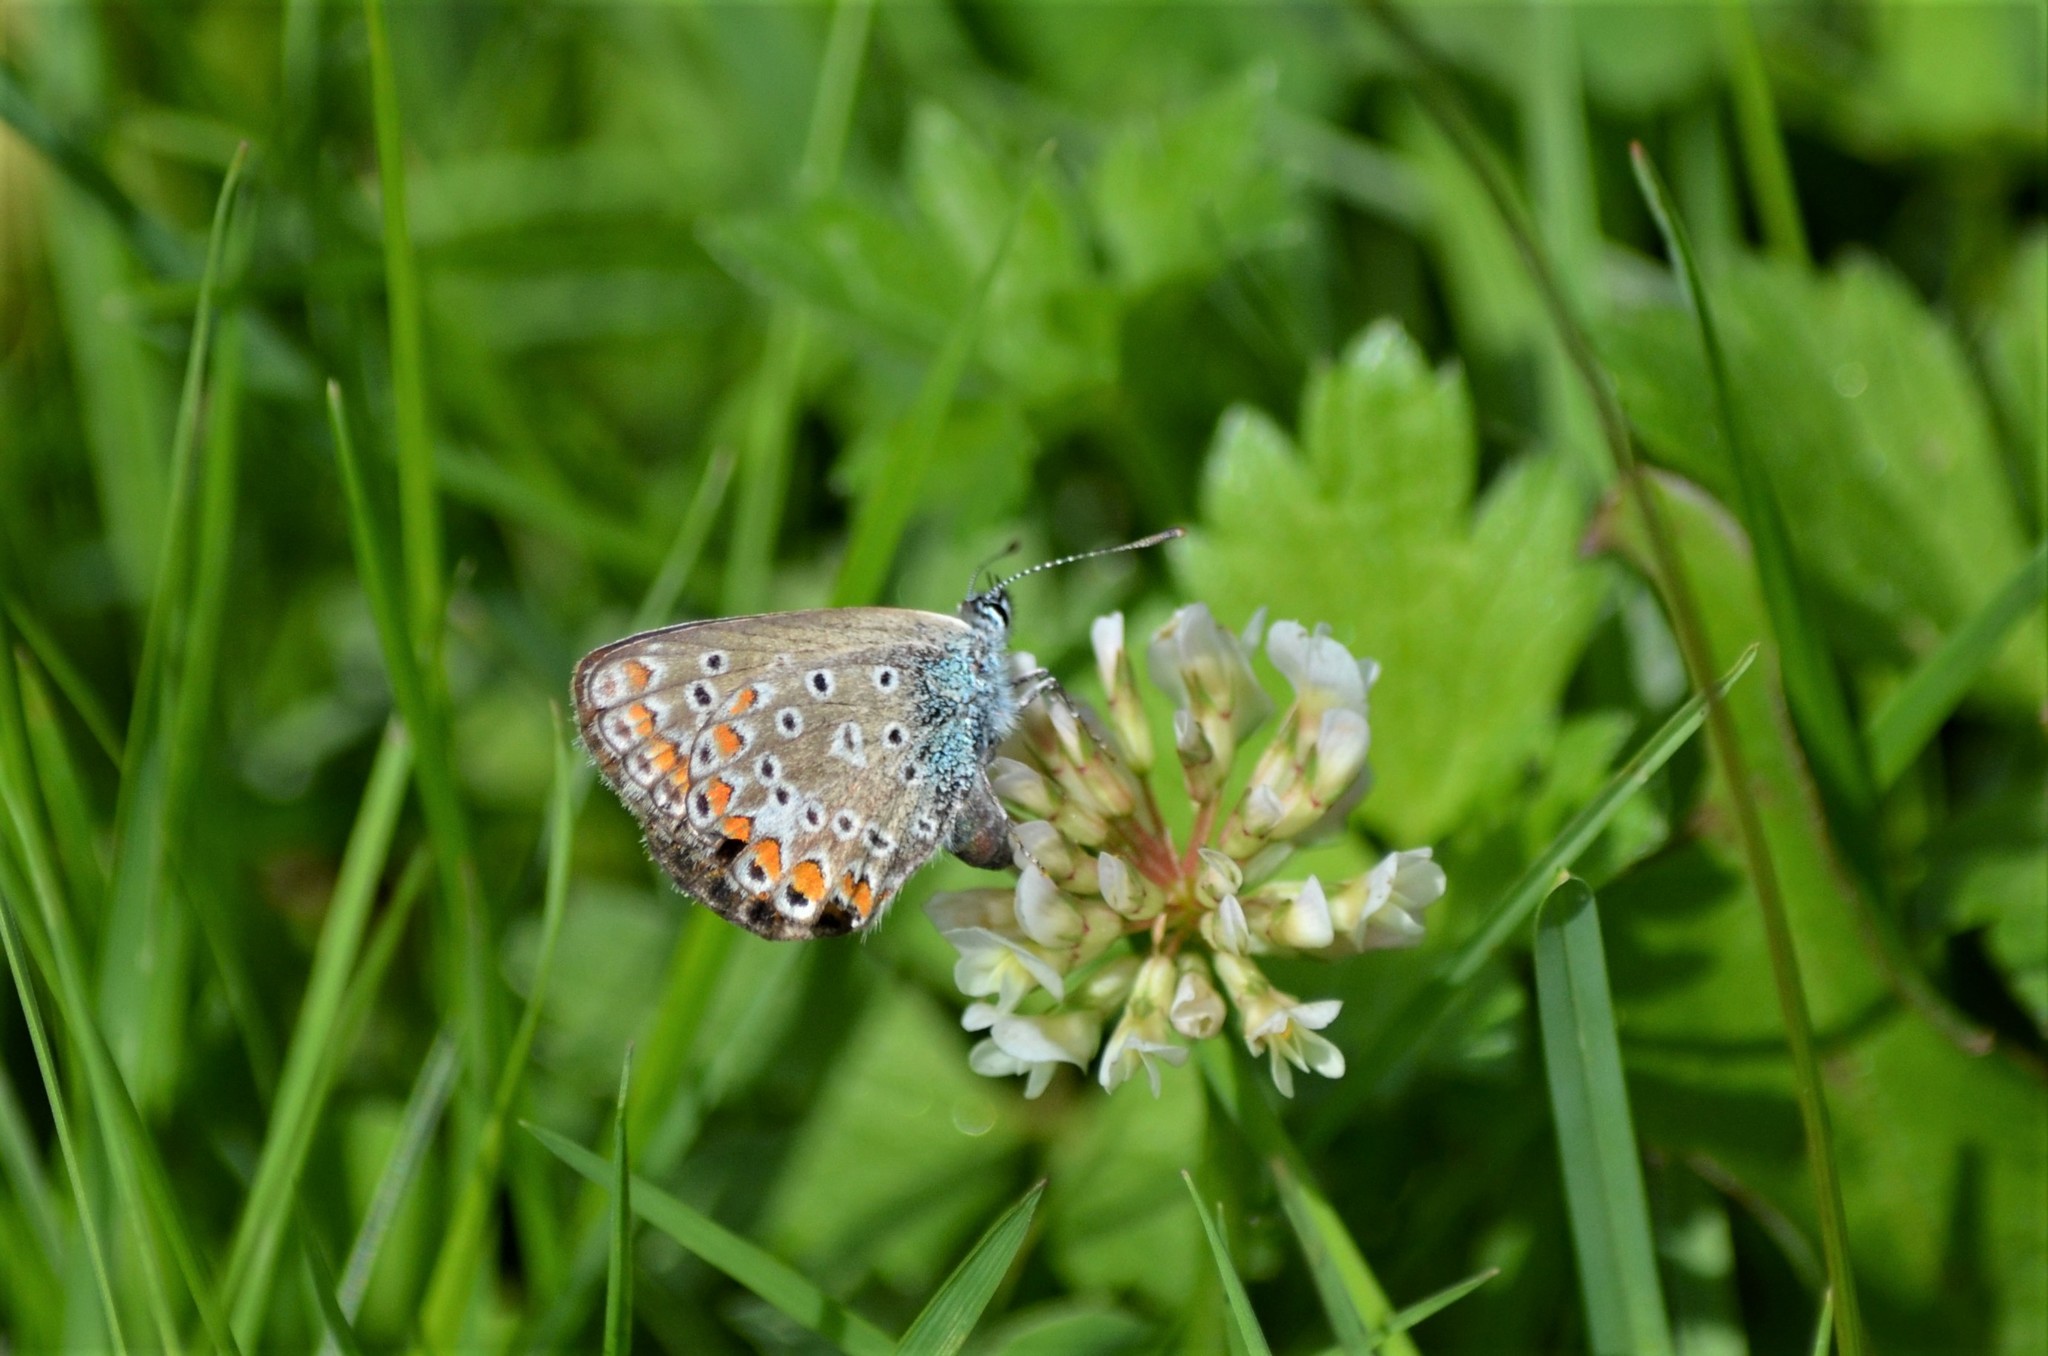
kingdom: Animalia
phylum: Arthropoda
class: Insecta
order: Lepidoptera
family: Lycaenidae
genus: Polyommatus
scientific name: Polyommatus icarus
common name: Common blue
